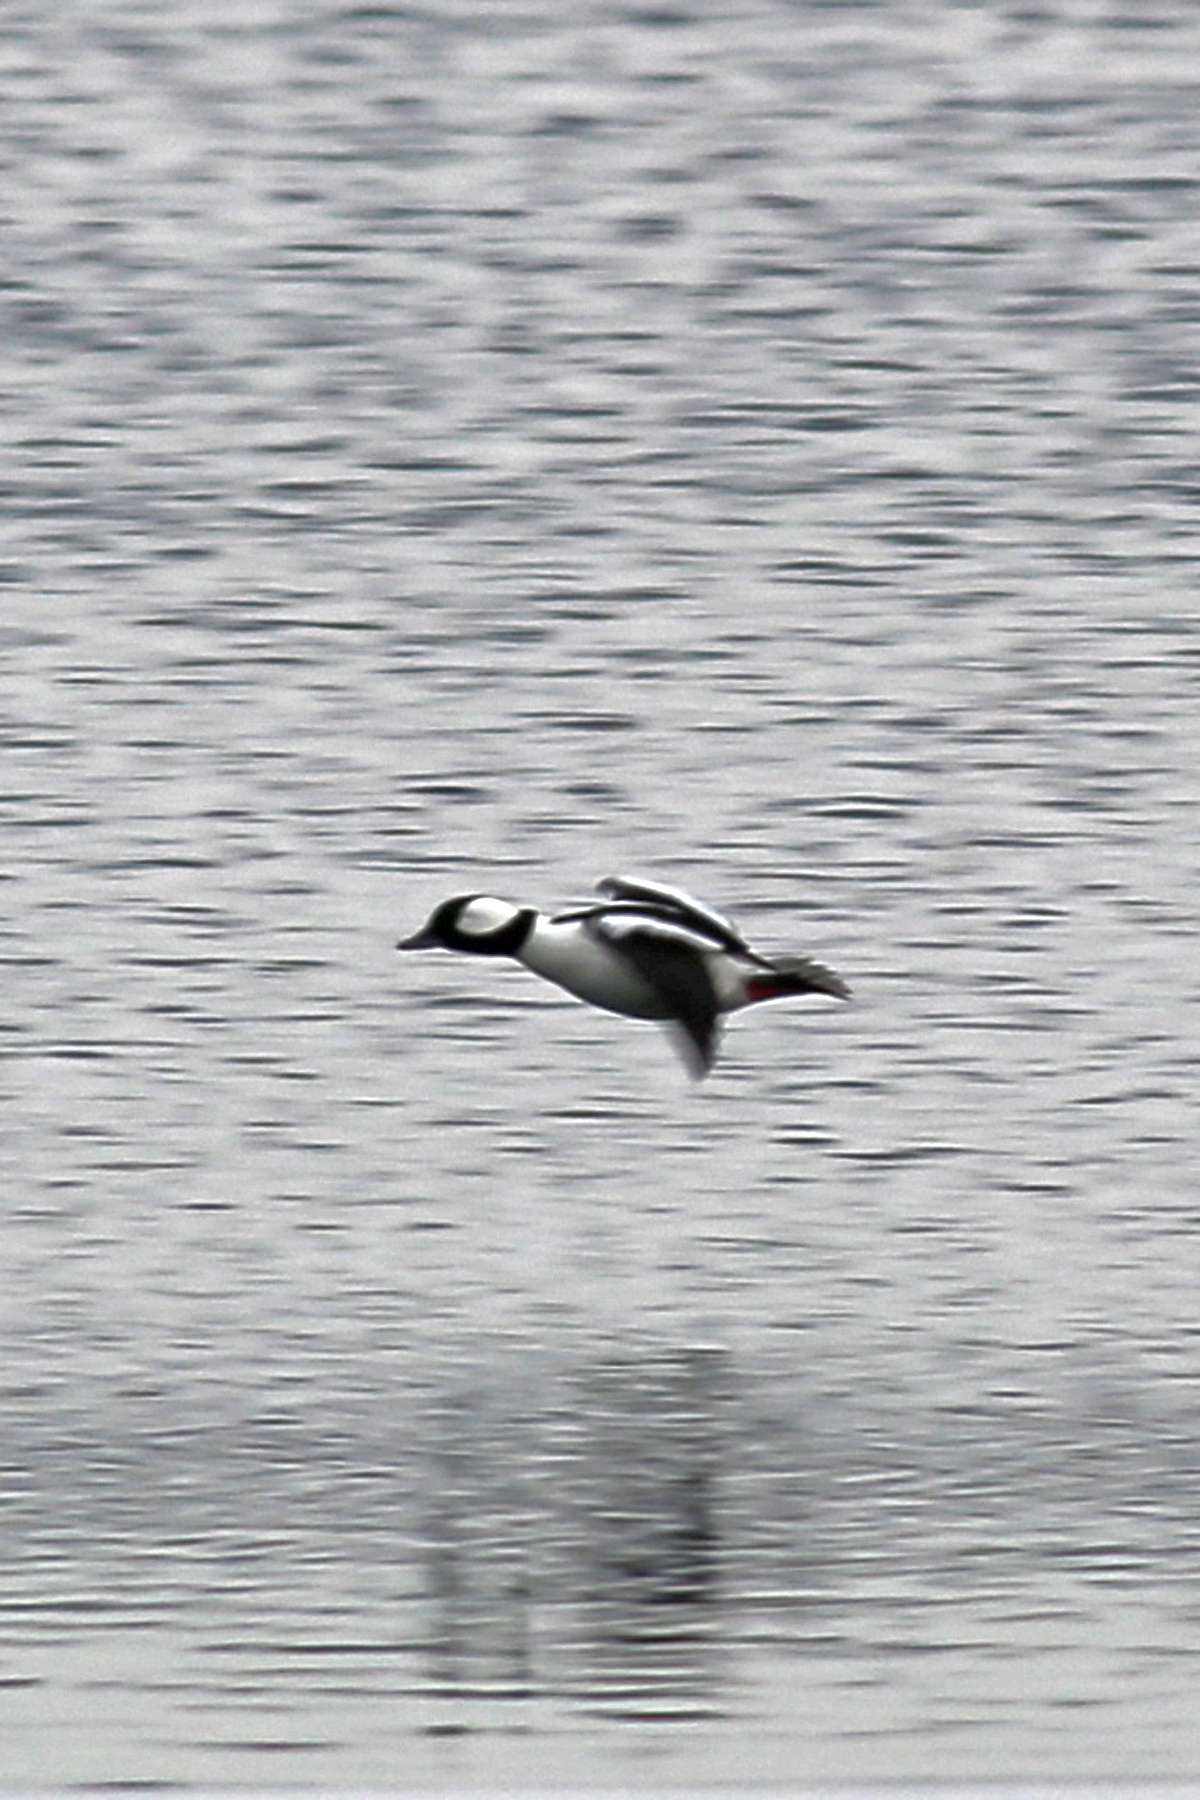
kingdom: Animalia
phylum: Chordata
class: Aves
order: Anseriformes
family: Anatidae
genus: Bucephala
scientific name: Bucephala albeola
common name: Bufflehead
